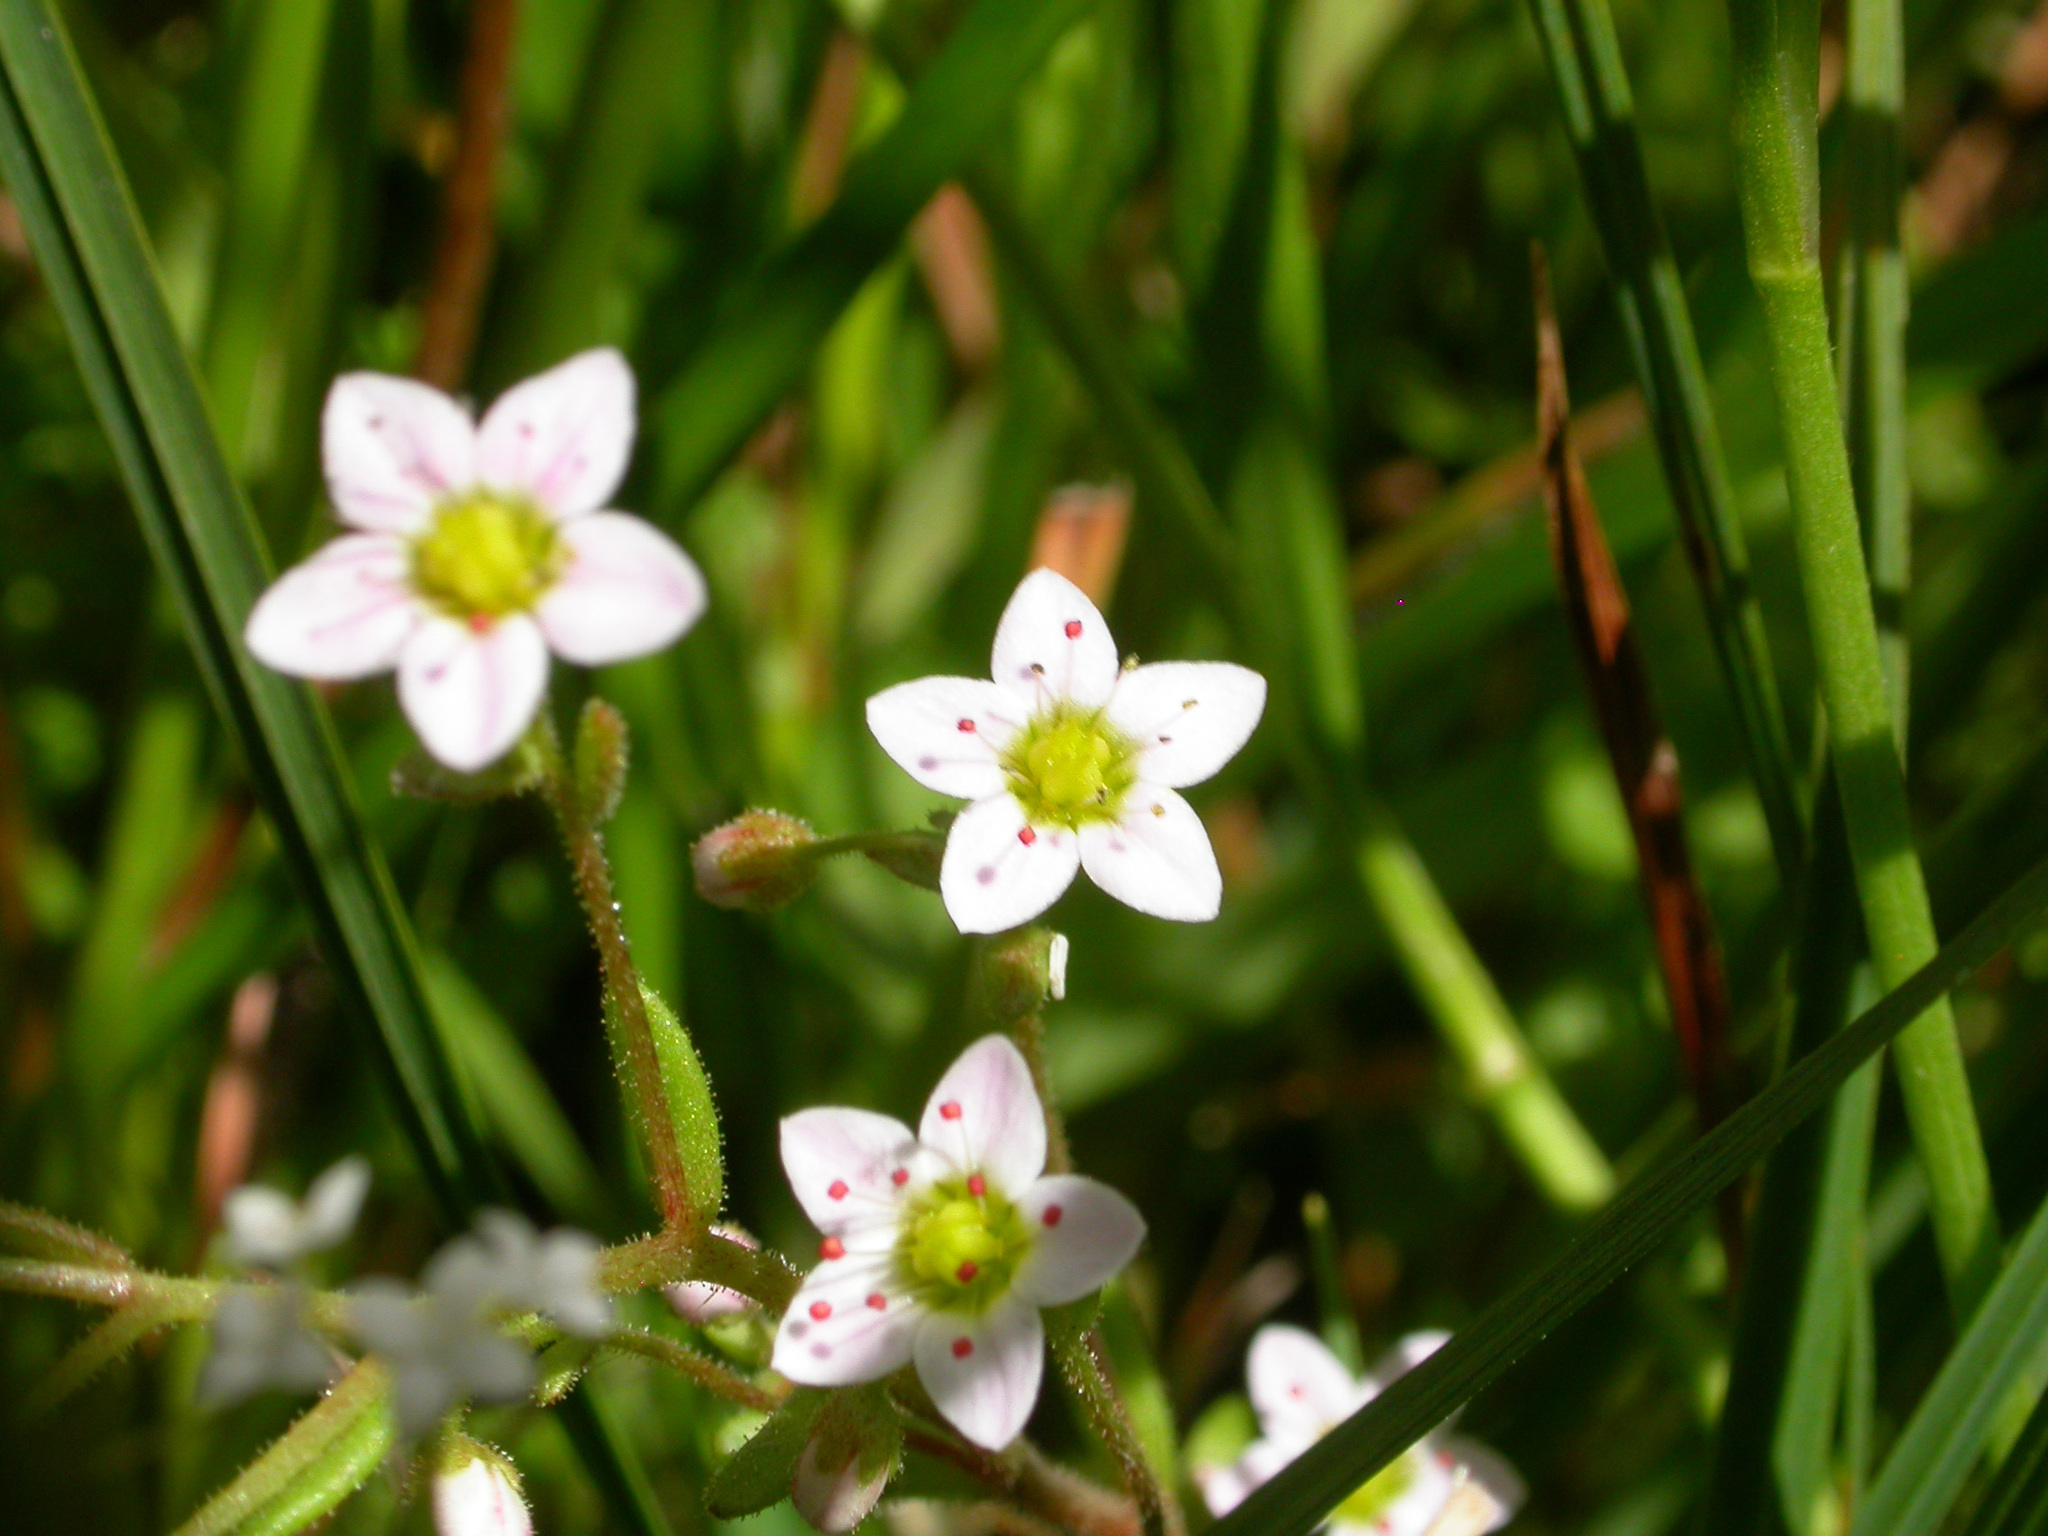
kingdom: Plantae
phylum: Tracheophyta
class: Magnoliopsida
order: Saxifragales
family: Crassulaceae
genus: Sedum
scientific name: Sedum villosum
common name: Hairy stonecrop
